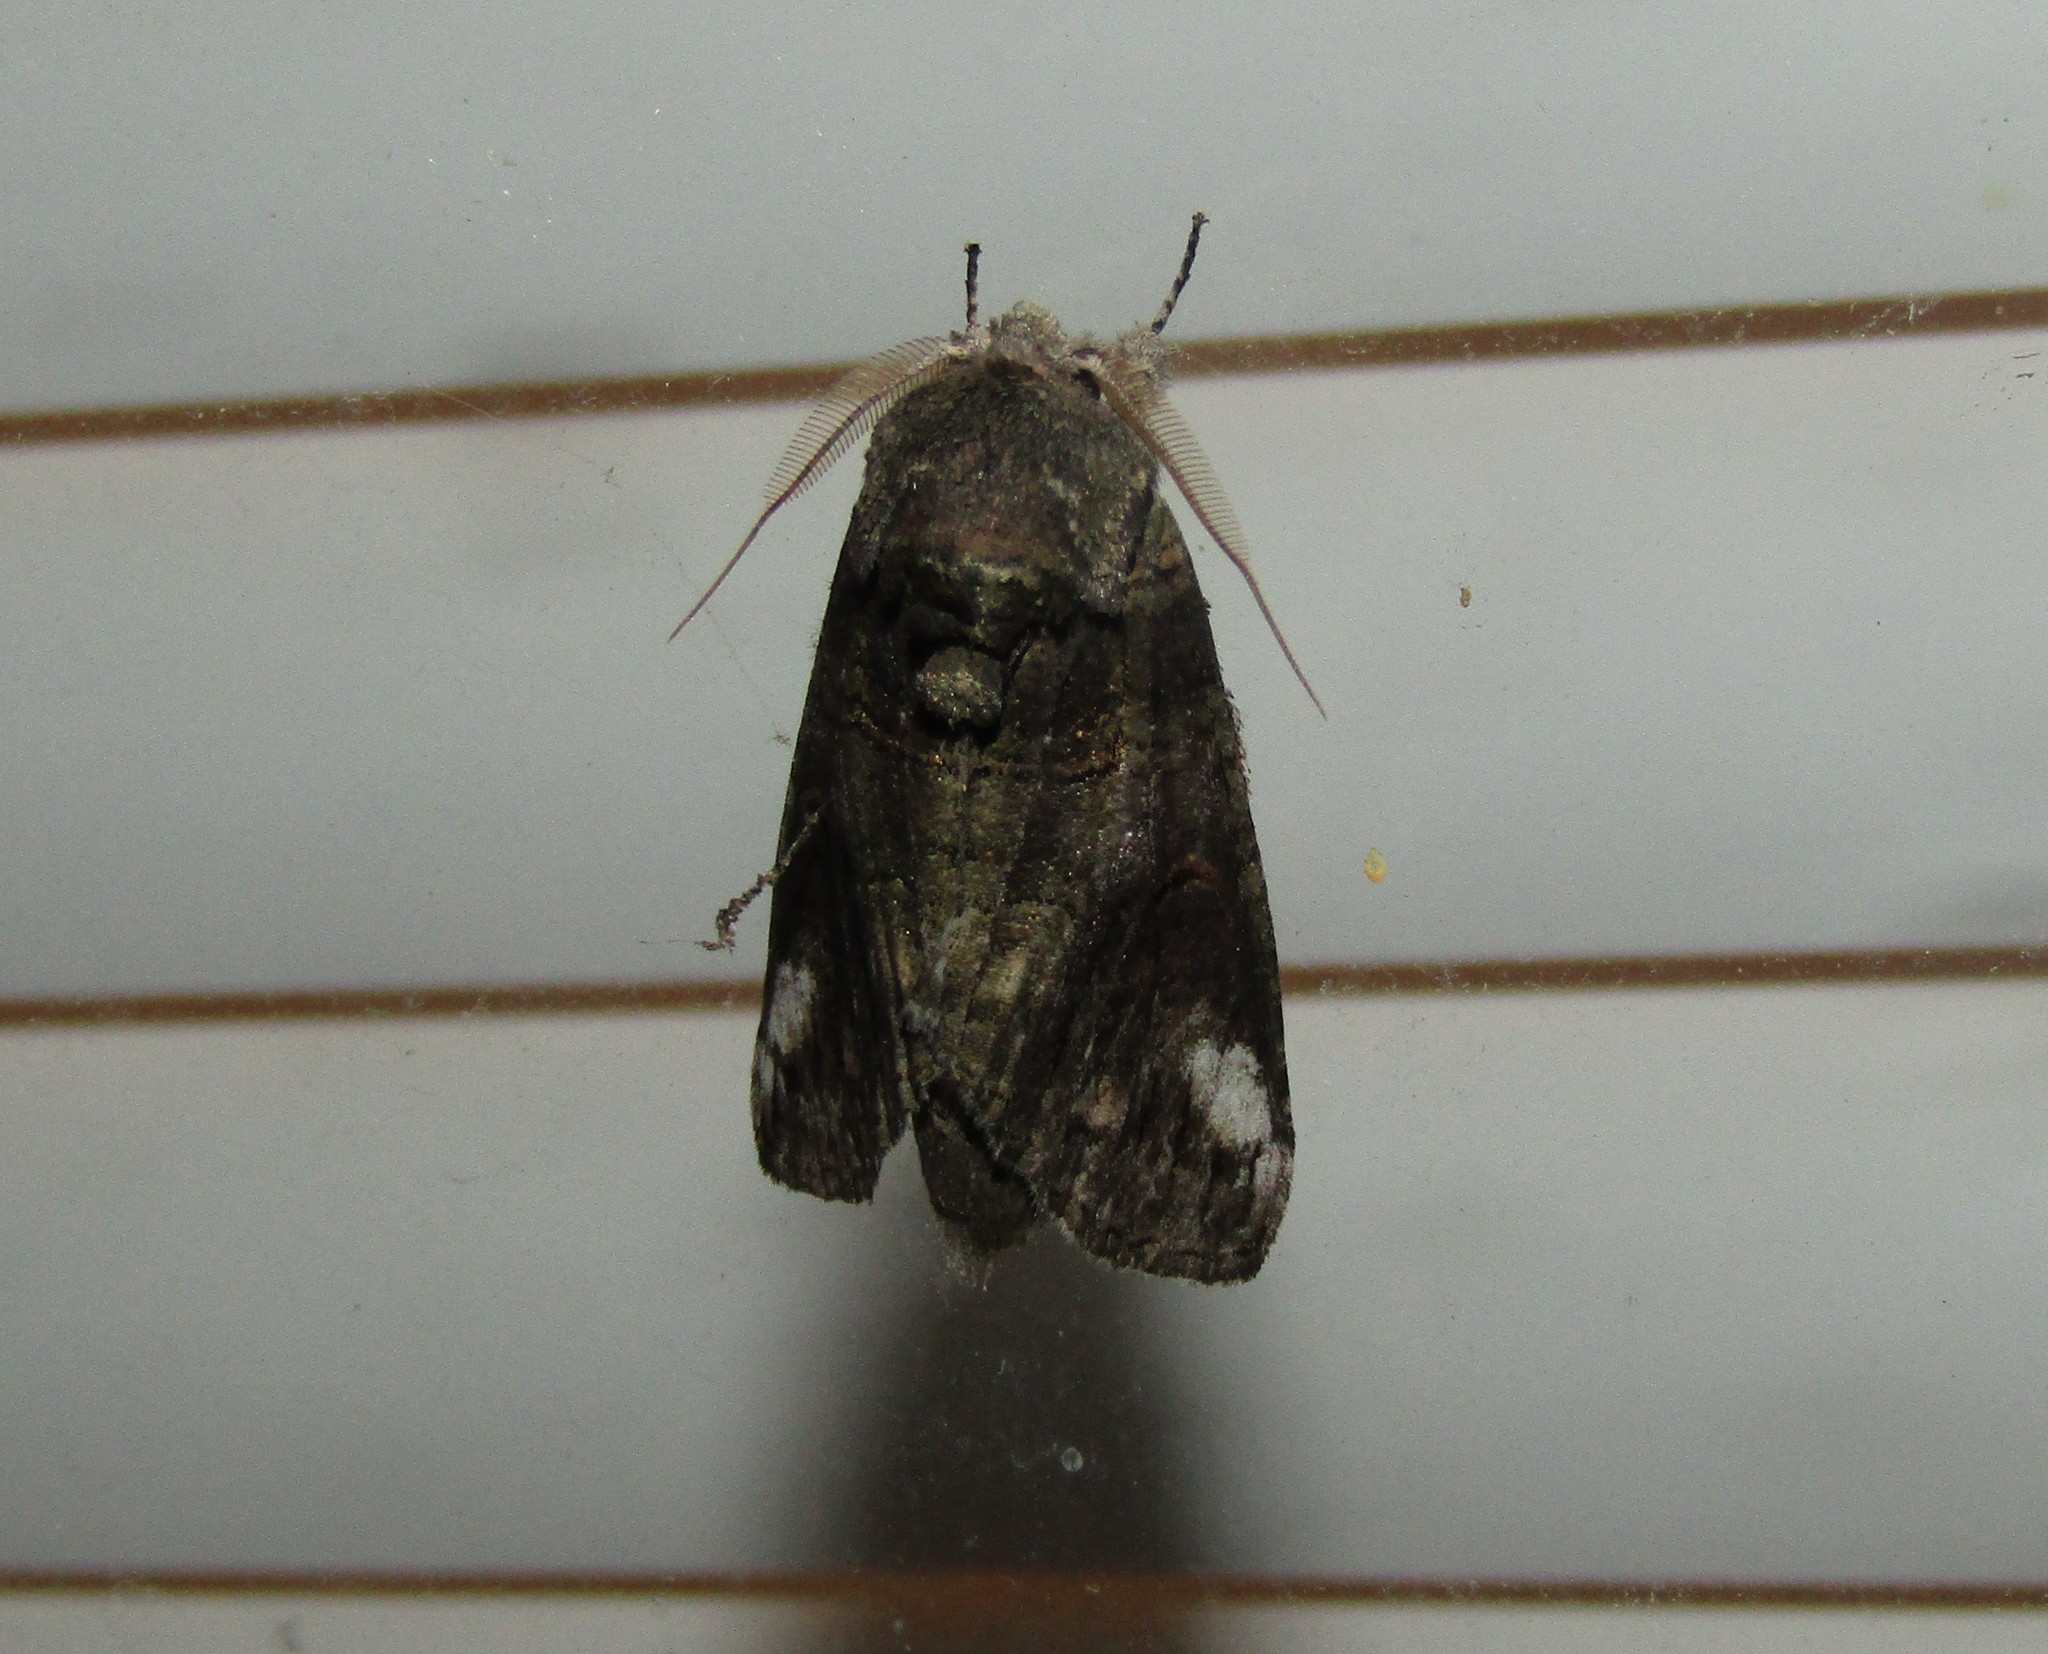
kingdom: Animalia
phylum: Arthropoda
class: Insecta
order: Lepidoptera
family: Notodontidae
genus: Heterocampa
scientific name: Heterocampa obliqua
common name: Oblique heterocampa
